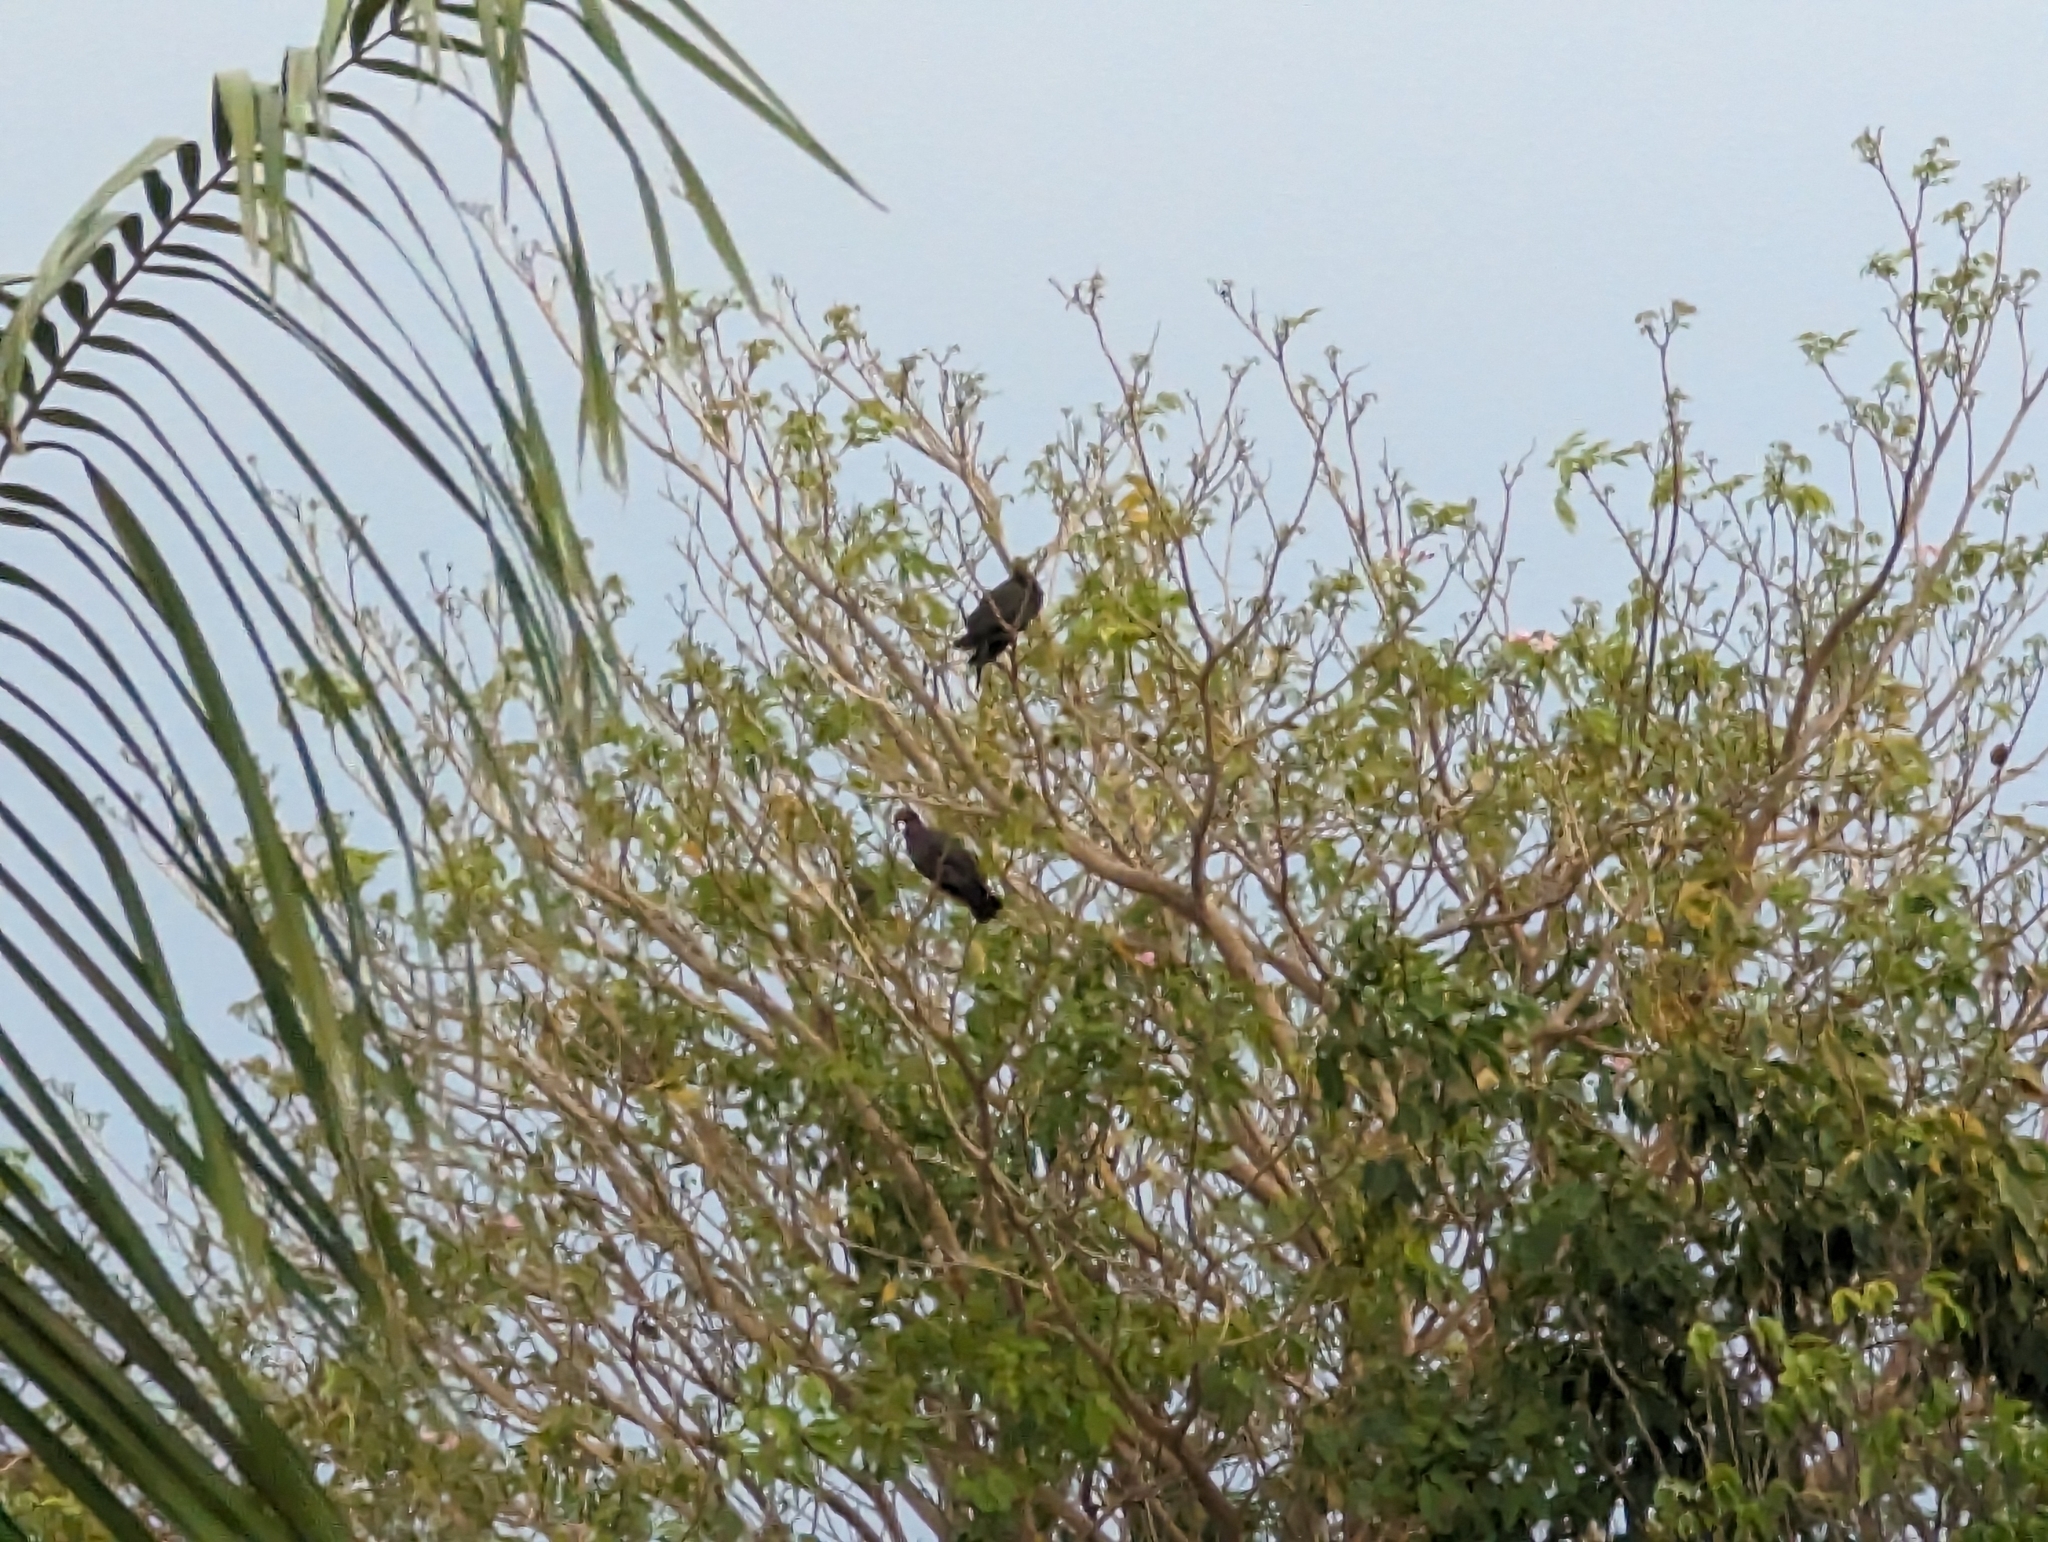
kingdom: Animalia
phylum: Chordata
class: Aves
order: Columbiformes
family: Columbidae
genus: Patagioenas
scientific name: Patagioenas squamosa
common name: Scaly-naped pigeon
